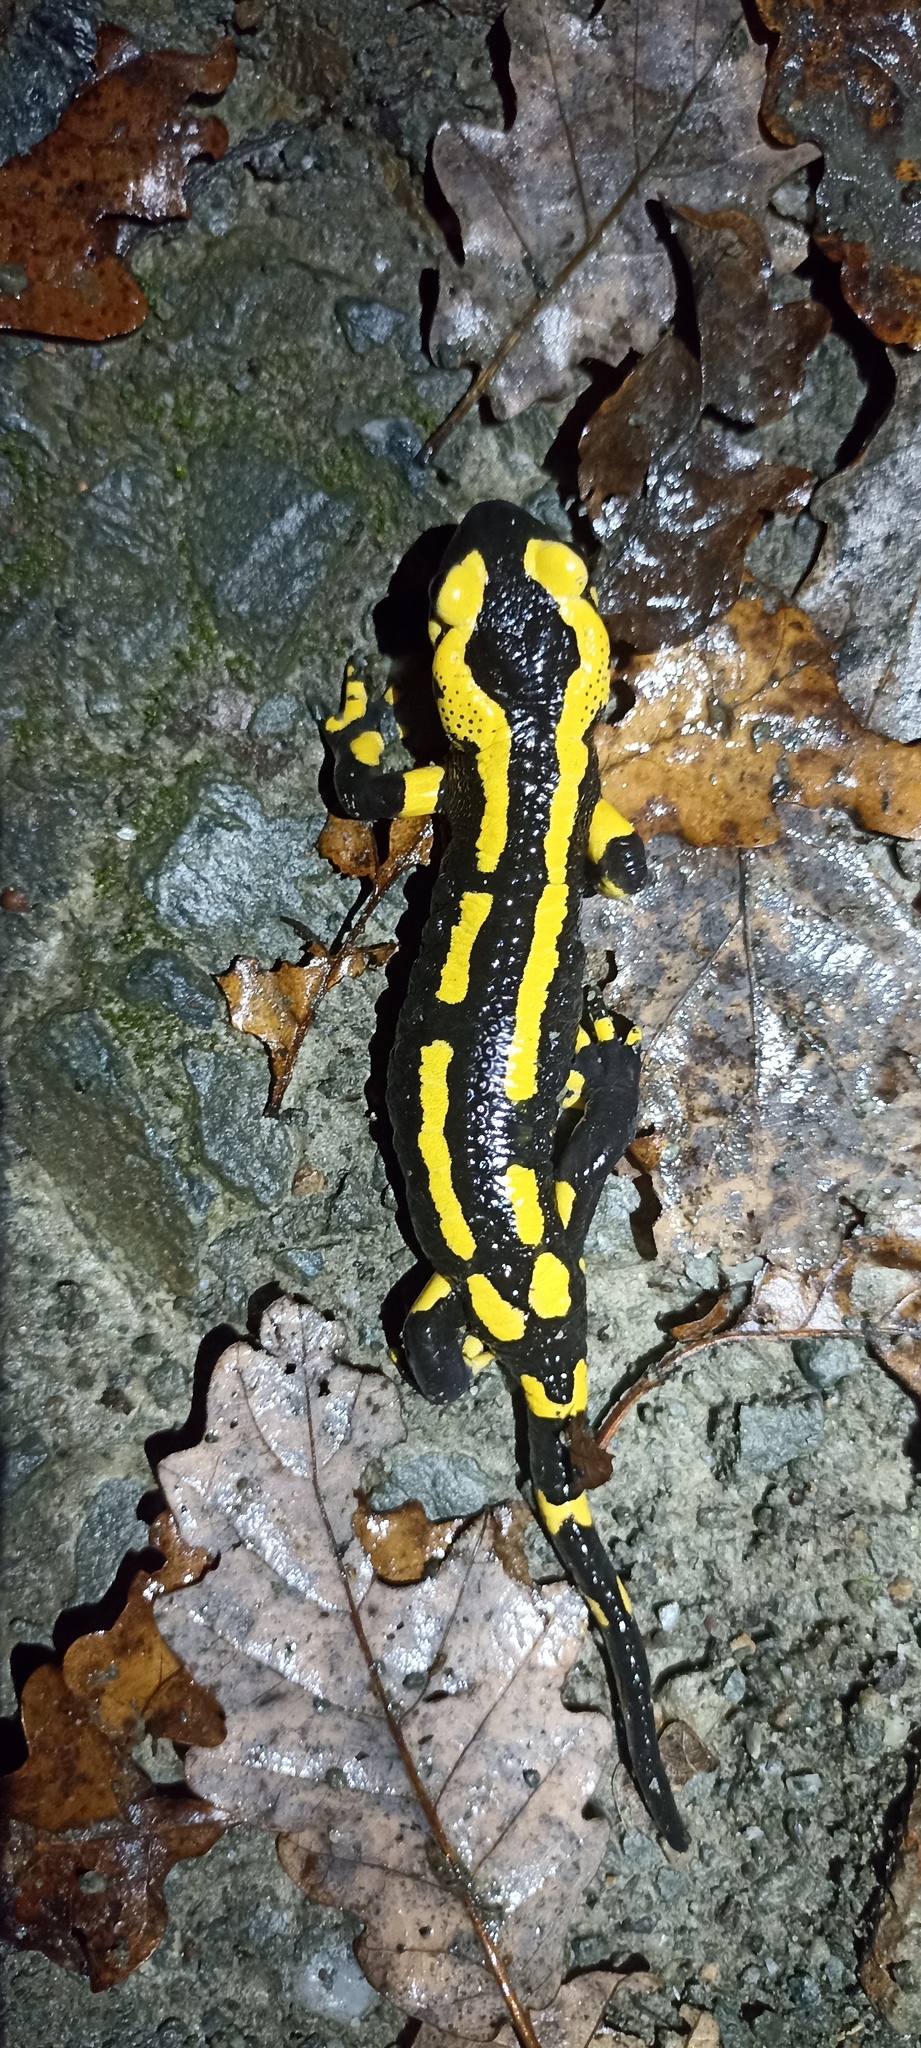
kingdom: Animalia
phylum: Chordata
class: Amphibia
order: Caudata
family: Salamandridae
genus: Salamandra
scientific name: Salamandra salamandra
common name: Fire salamander
